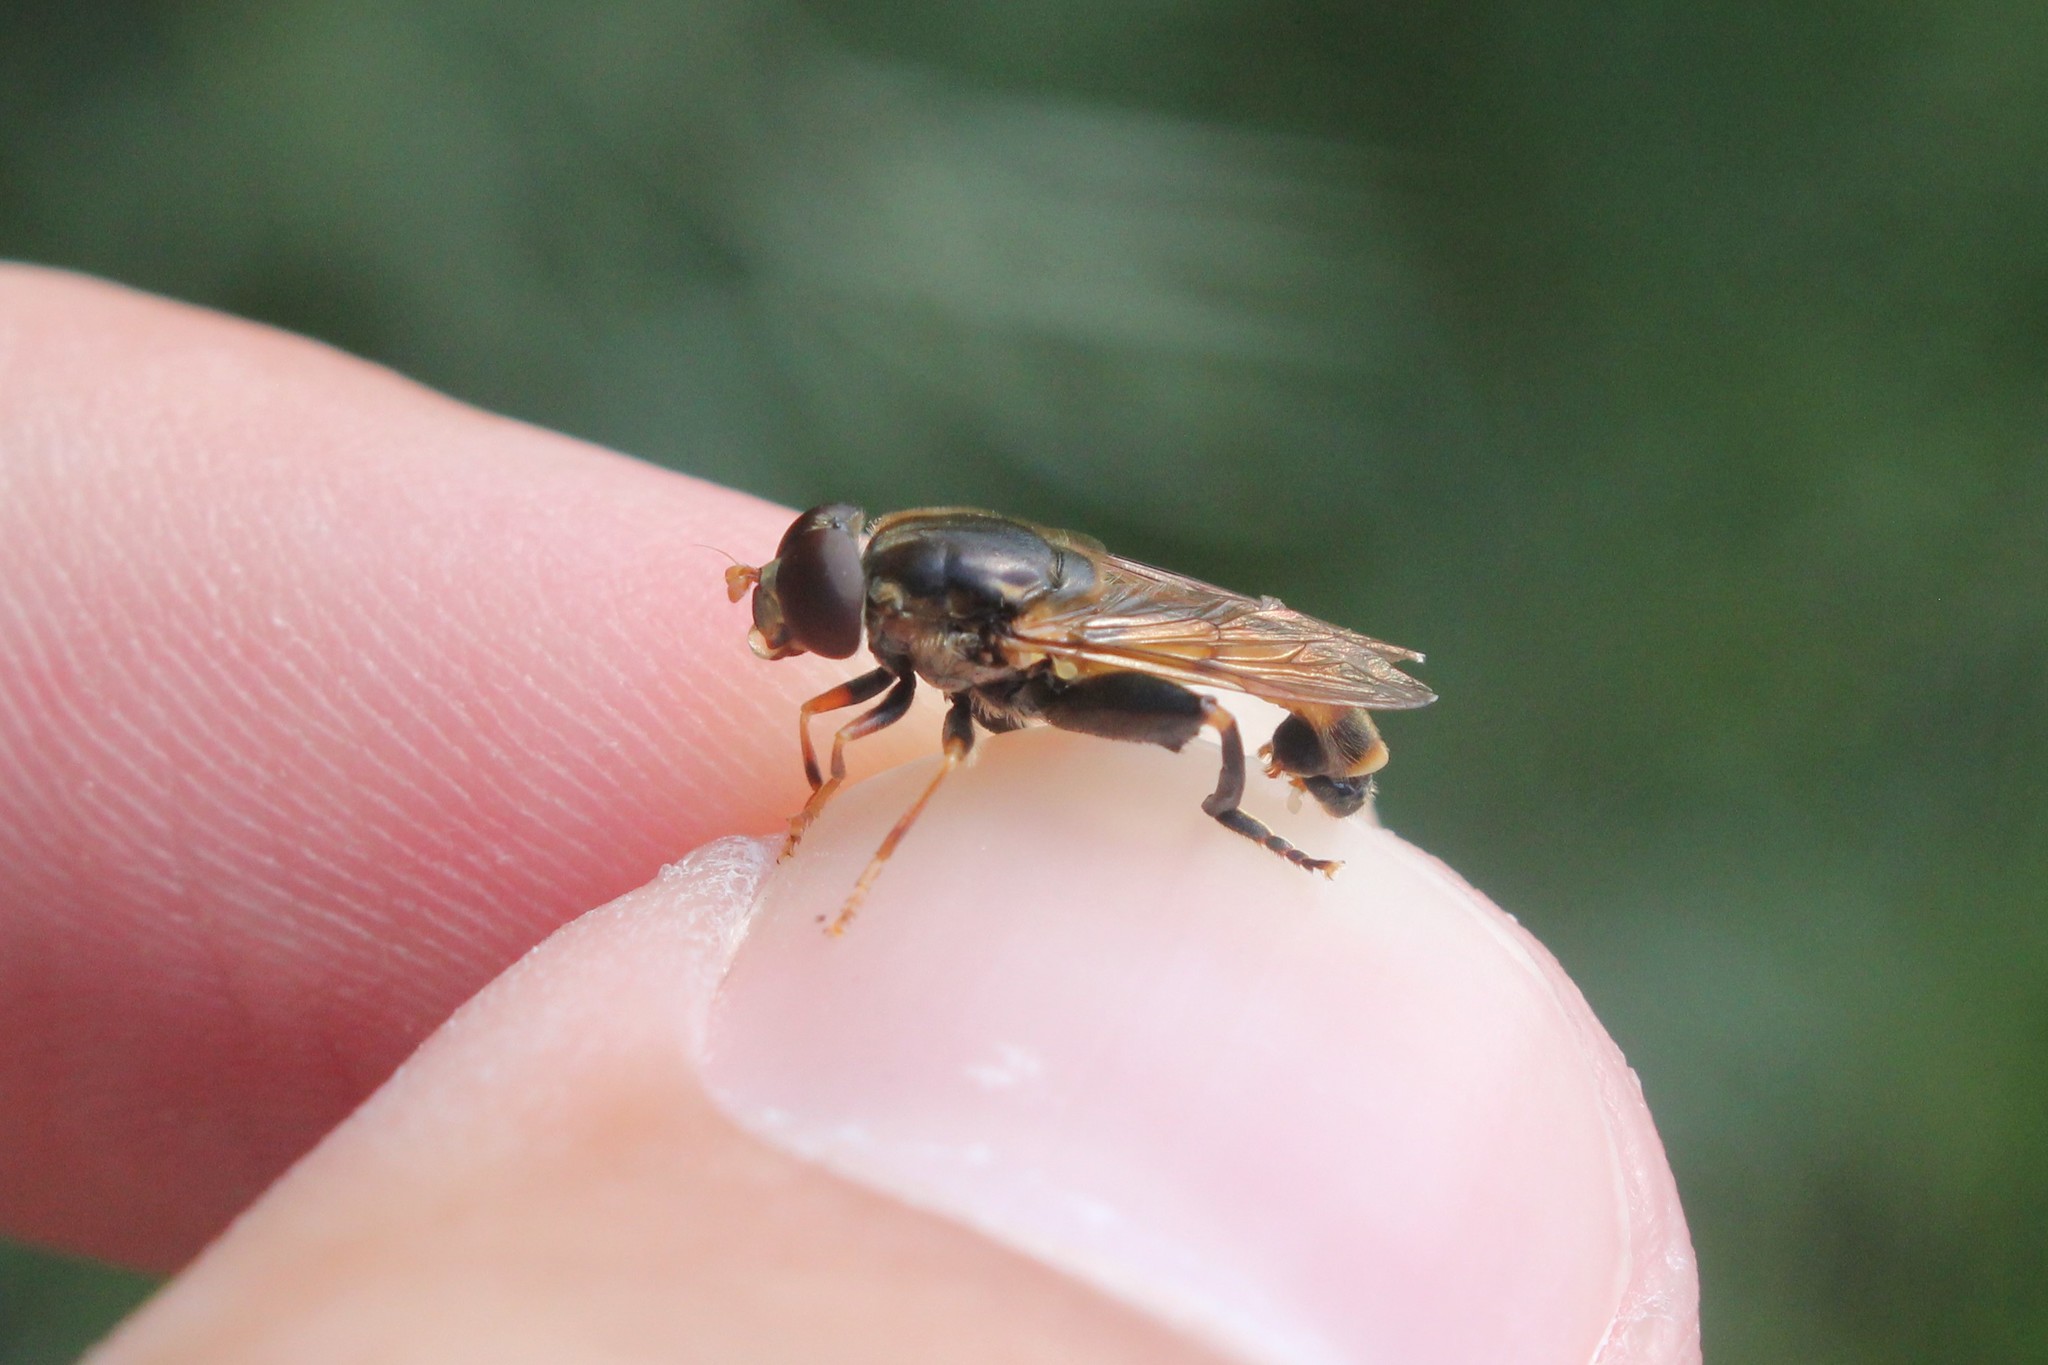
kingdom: Animalia
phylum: Arthropoda
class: Insecta
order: Diptera
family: Syrphidae
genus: Tropidia
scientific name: Tropidia quadrata
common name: Common thick-legged fly
